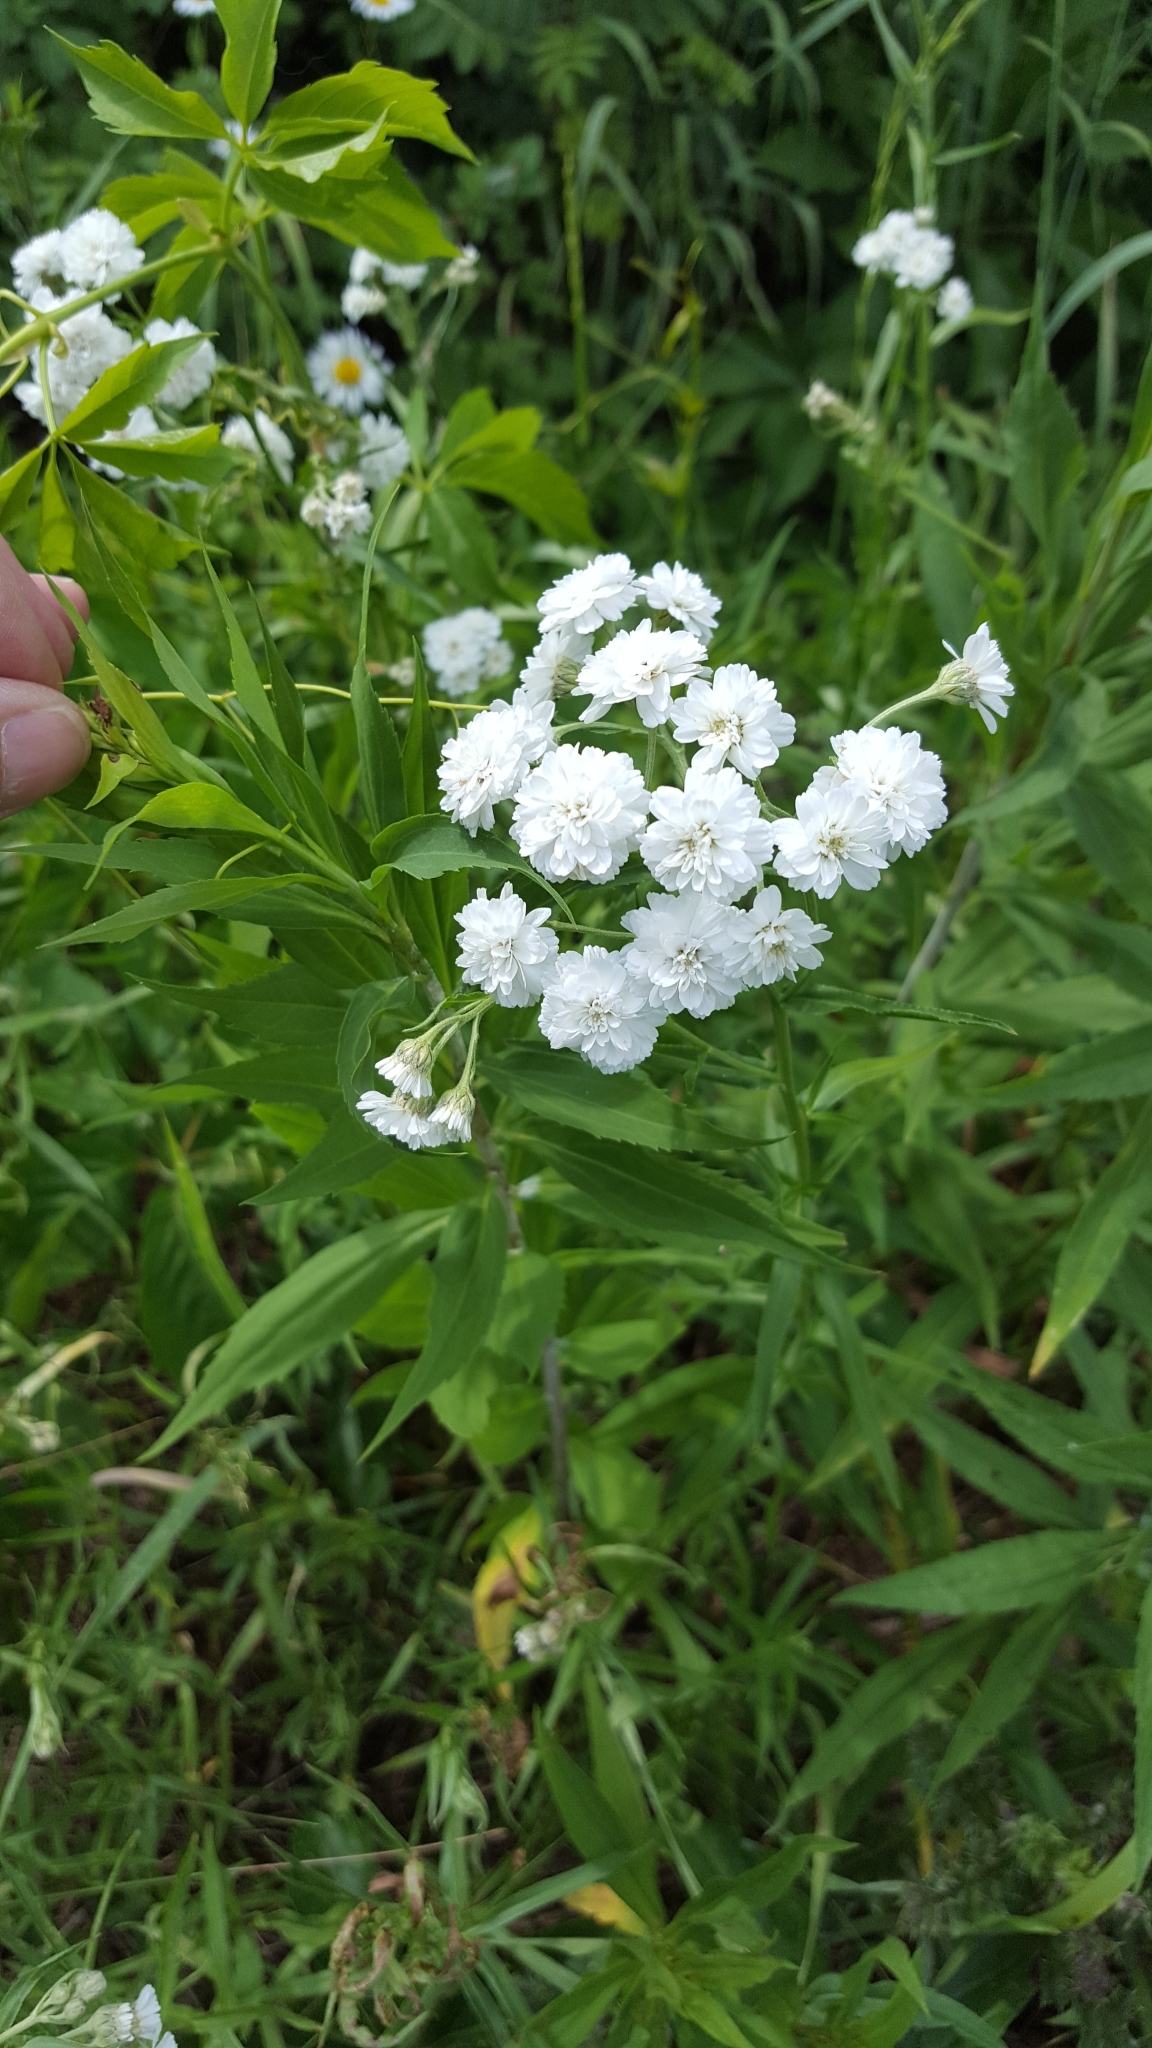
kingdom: Plantae
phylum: Tracheophyta
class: Magnoliopsida
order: Asterales
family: Asteraceae
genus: Achillea
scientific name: Achillea ptarmica
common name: Sneezeweed
